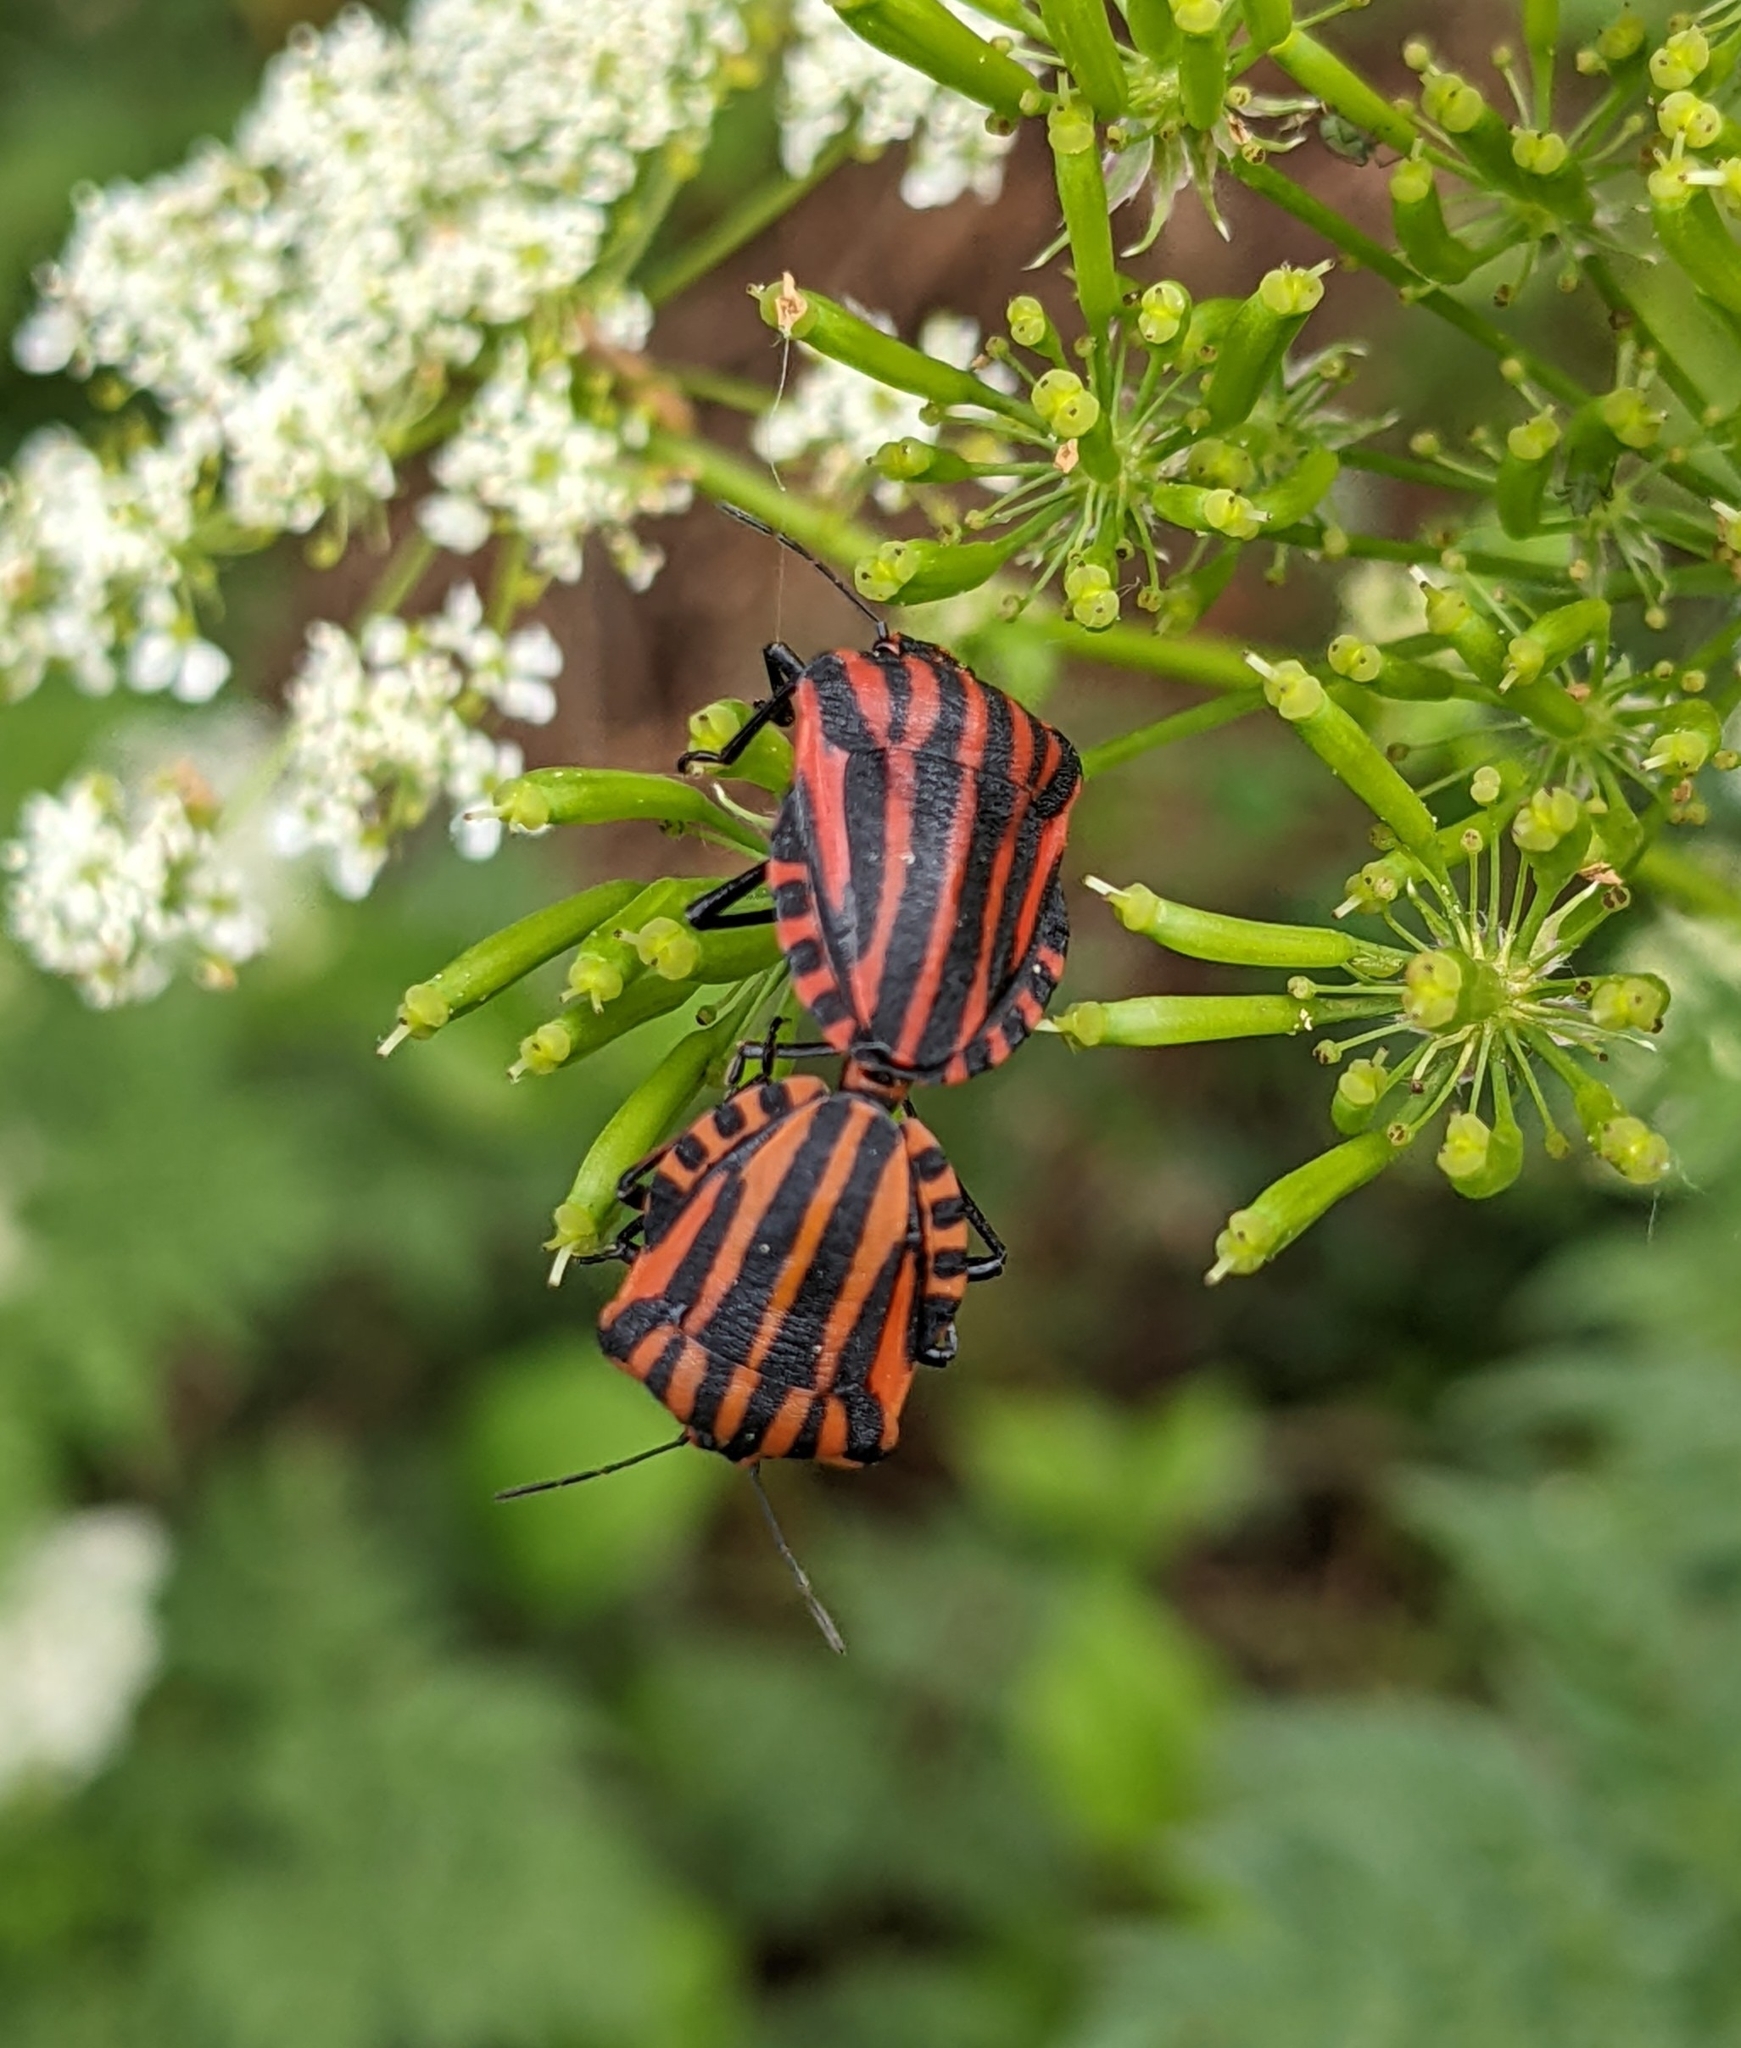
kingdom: Animalia
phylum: Arthropoda
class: Insecta
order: Hemiptera
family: Pentatomidae
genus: Graphosoma
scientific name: Graphosoma italicum
